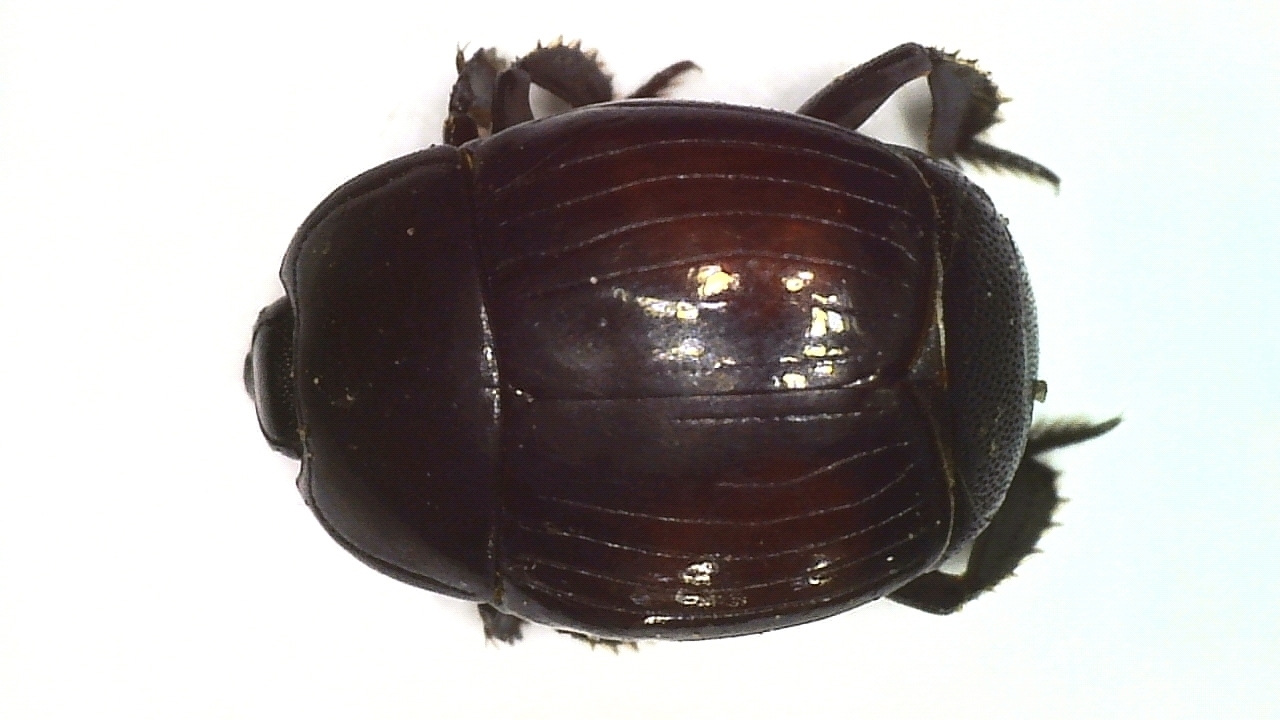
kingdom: Animalia
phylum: Arthropoda
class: Insecta
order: Coleoptera
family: Histeridae
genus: Margarinotus
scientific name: Margarinotus purpurascens
